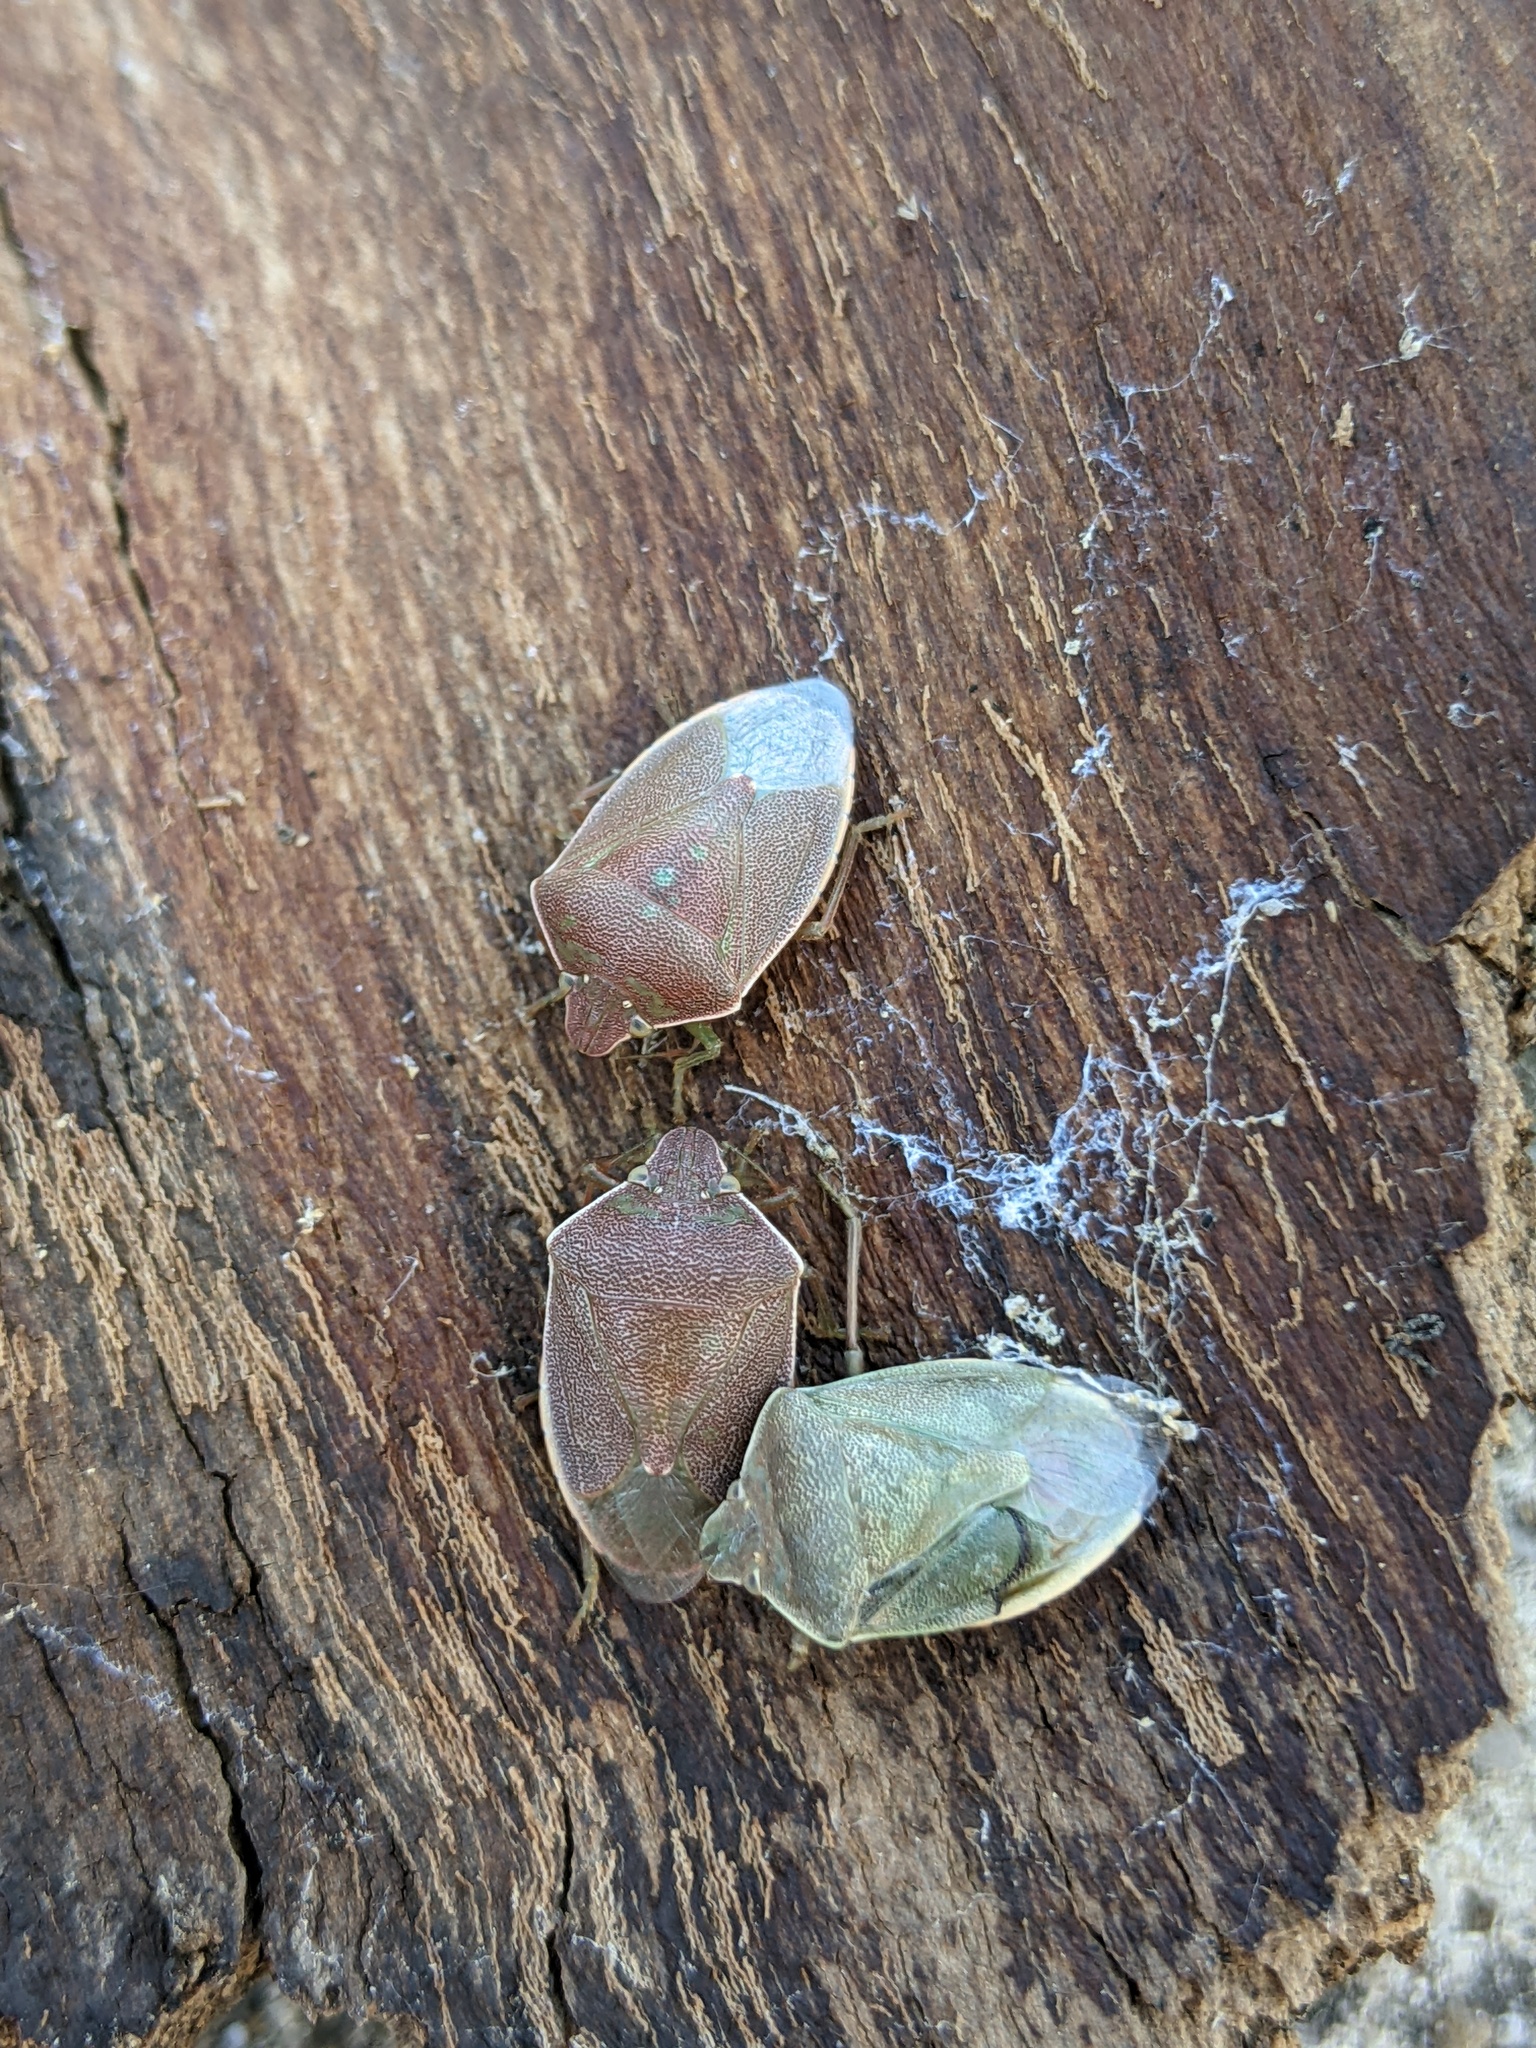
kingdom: Animalia
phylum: Arthropoda
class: Insecta
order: Hemiptera
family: Pentatomidae
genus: Acrosternum
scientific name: Acrosternum heegeri
